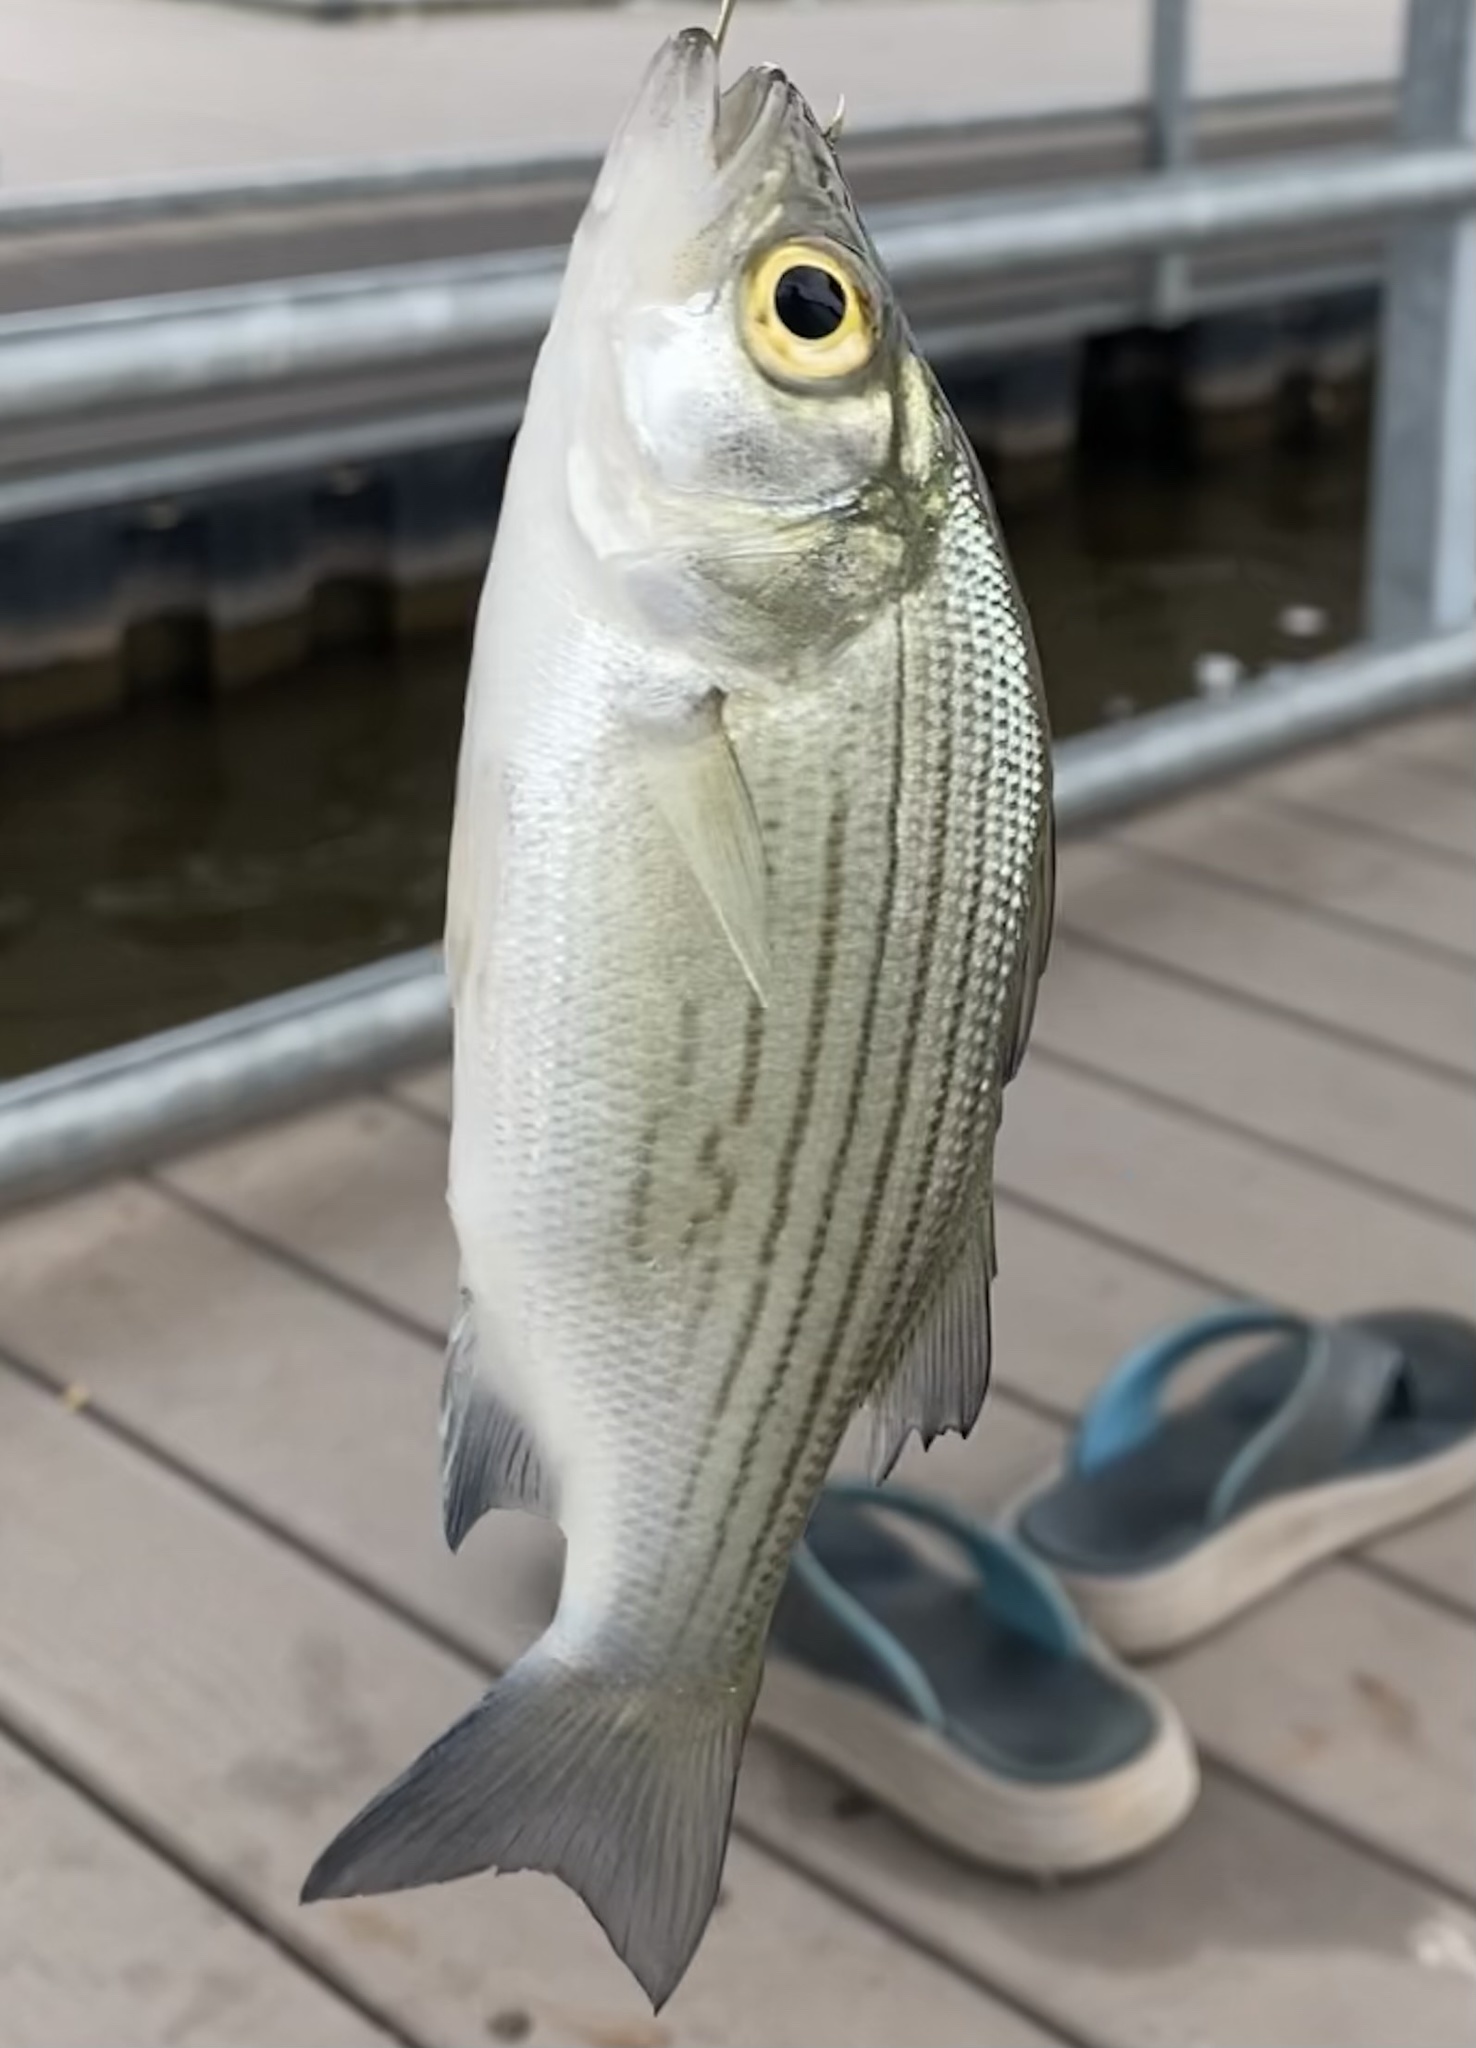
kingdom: Animalia
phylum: Chordata
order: Perciformes
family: Moronidae
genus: Morone
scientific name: Morone chrysops
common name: White bass
